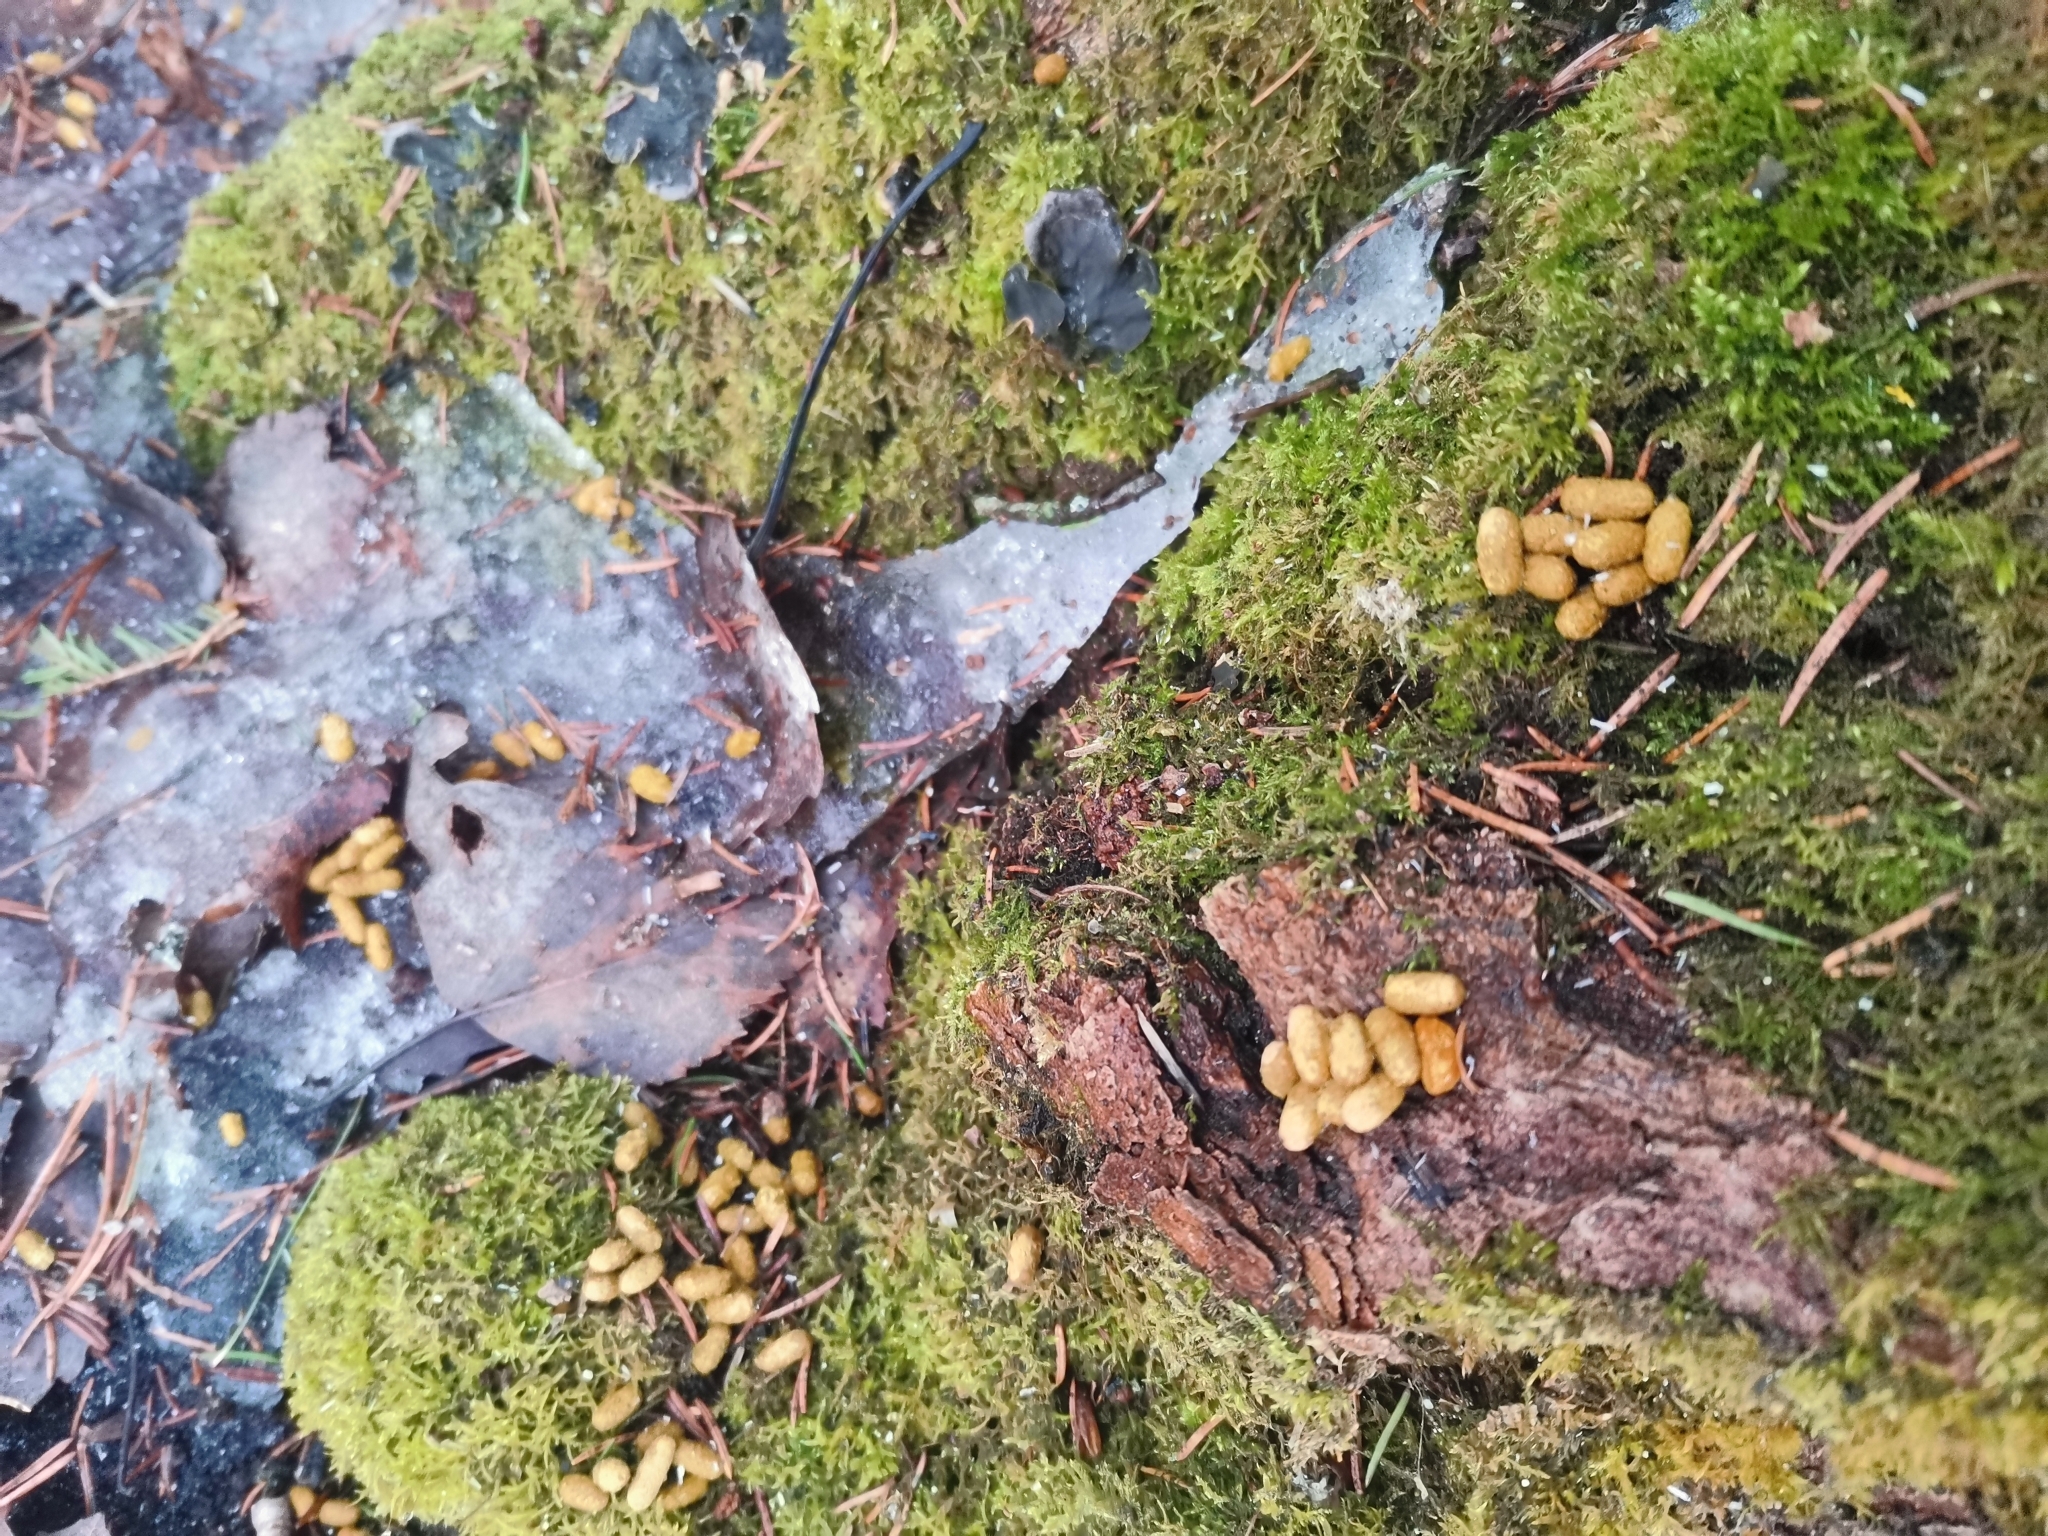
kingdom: Animalia
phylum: Chordata
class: Mammalia
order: Rodentia
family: Sciuridae
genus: Pteromys
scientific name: Pteromys volans
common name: Siberian flying squirrel
